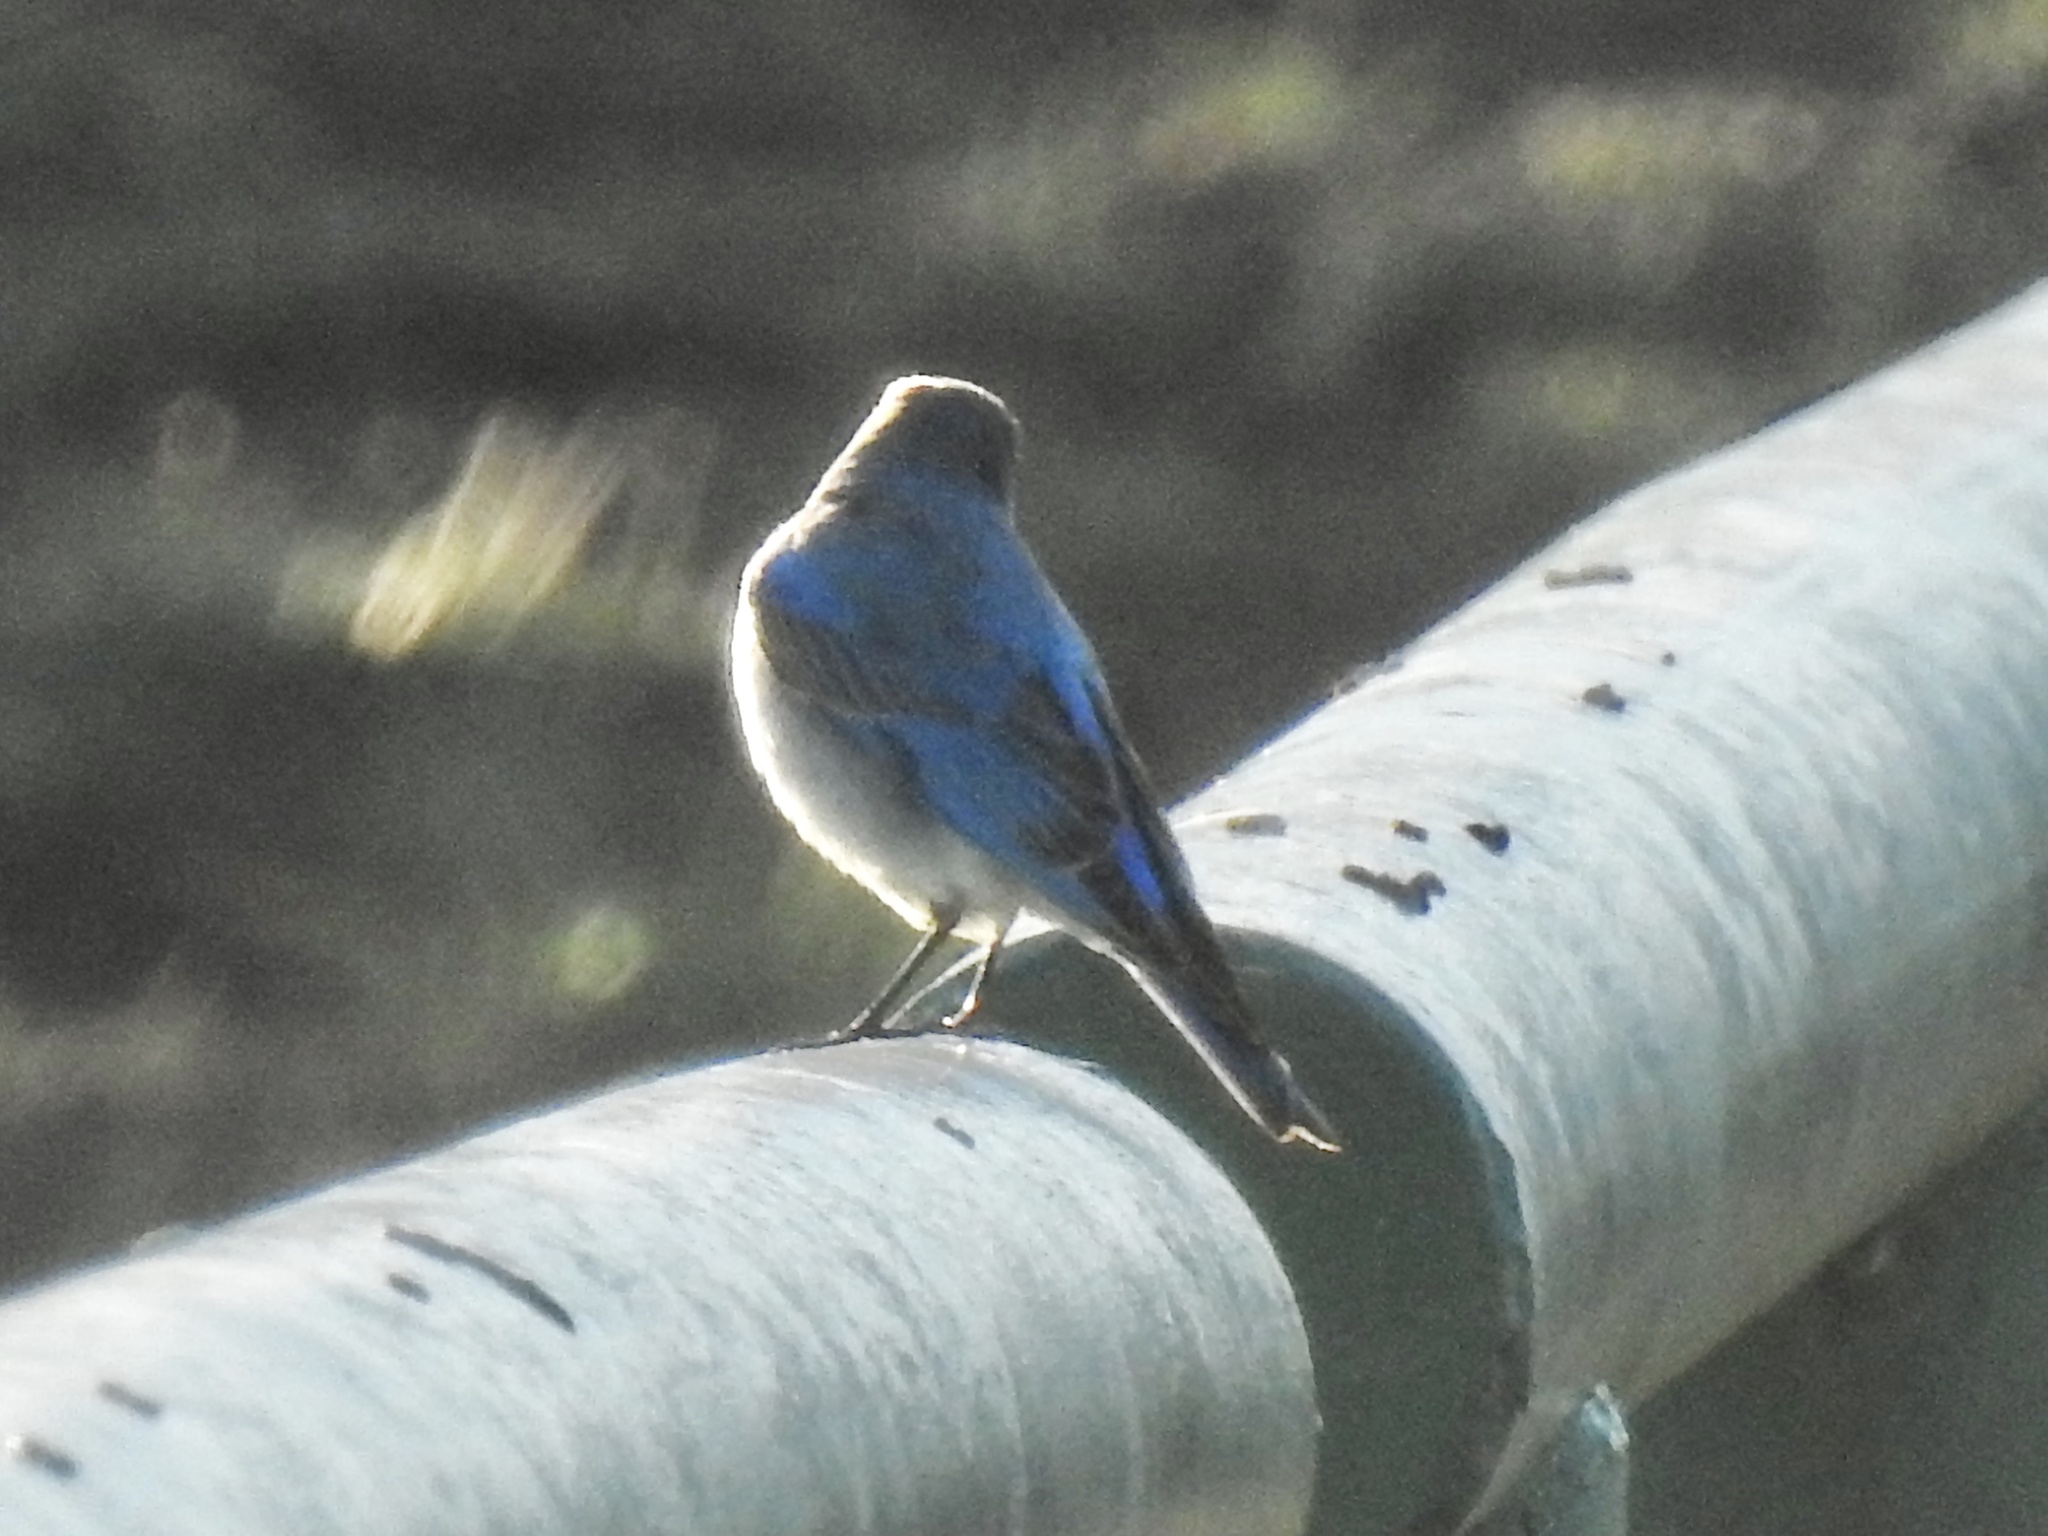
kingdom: Animalia
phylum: Chordata
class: Aves
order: Passeriformes
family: Turdidae
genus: Sialia
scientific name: Sialia currucoides
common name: Mountain bluebird
